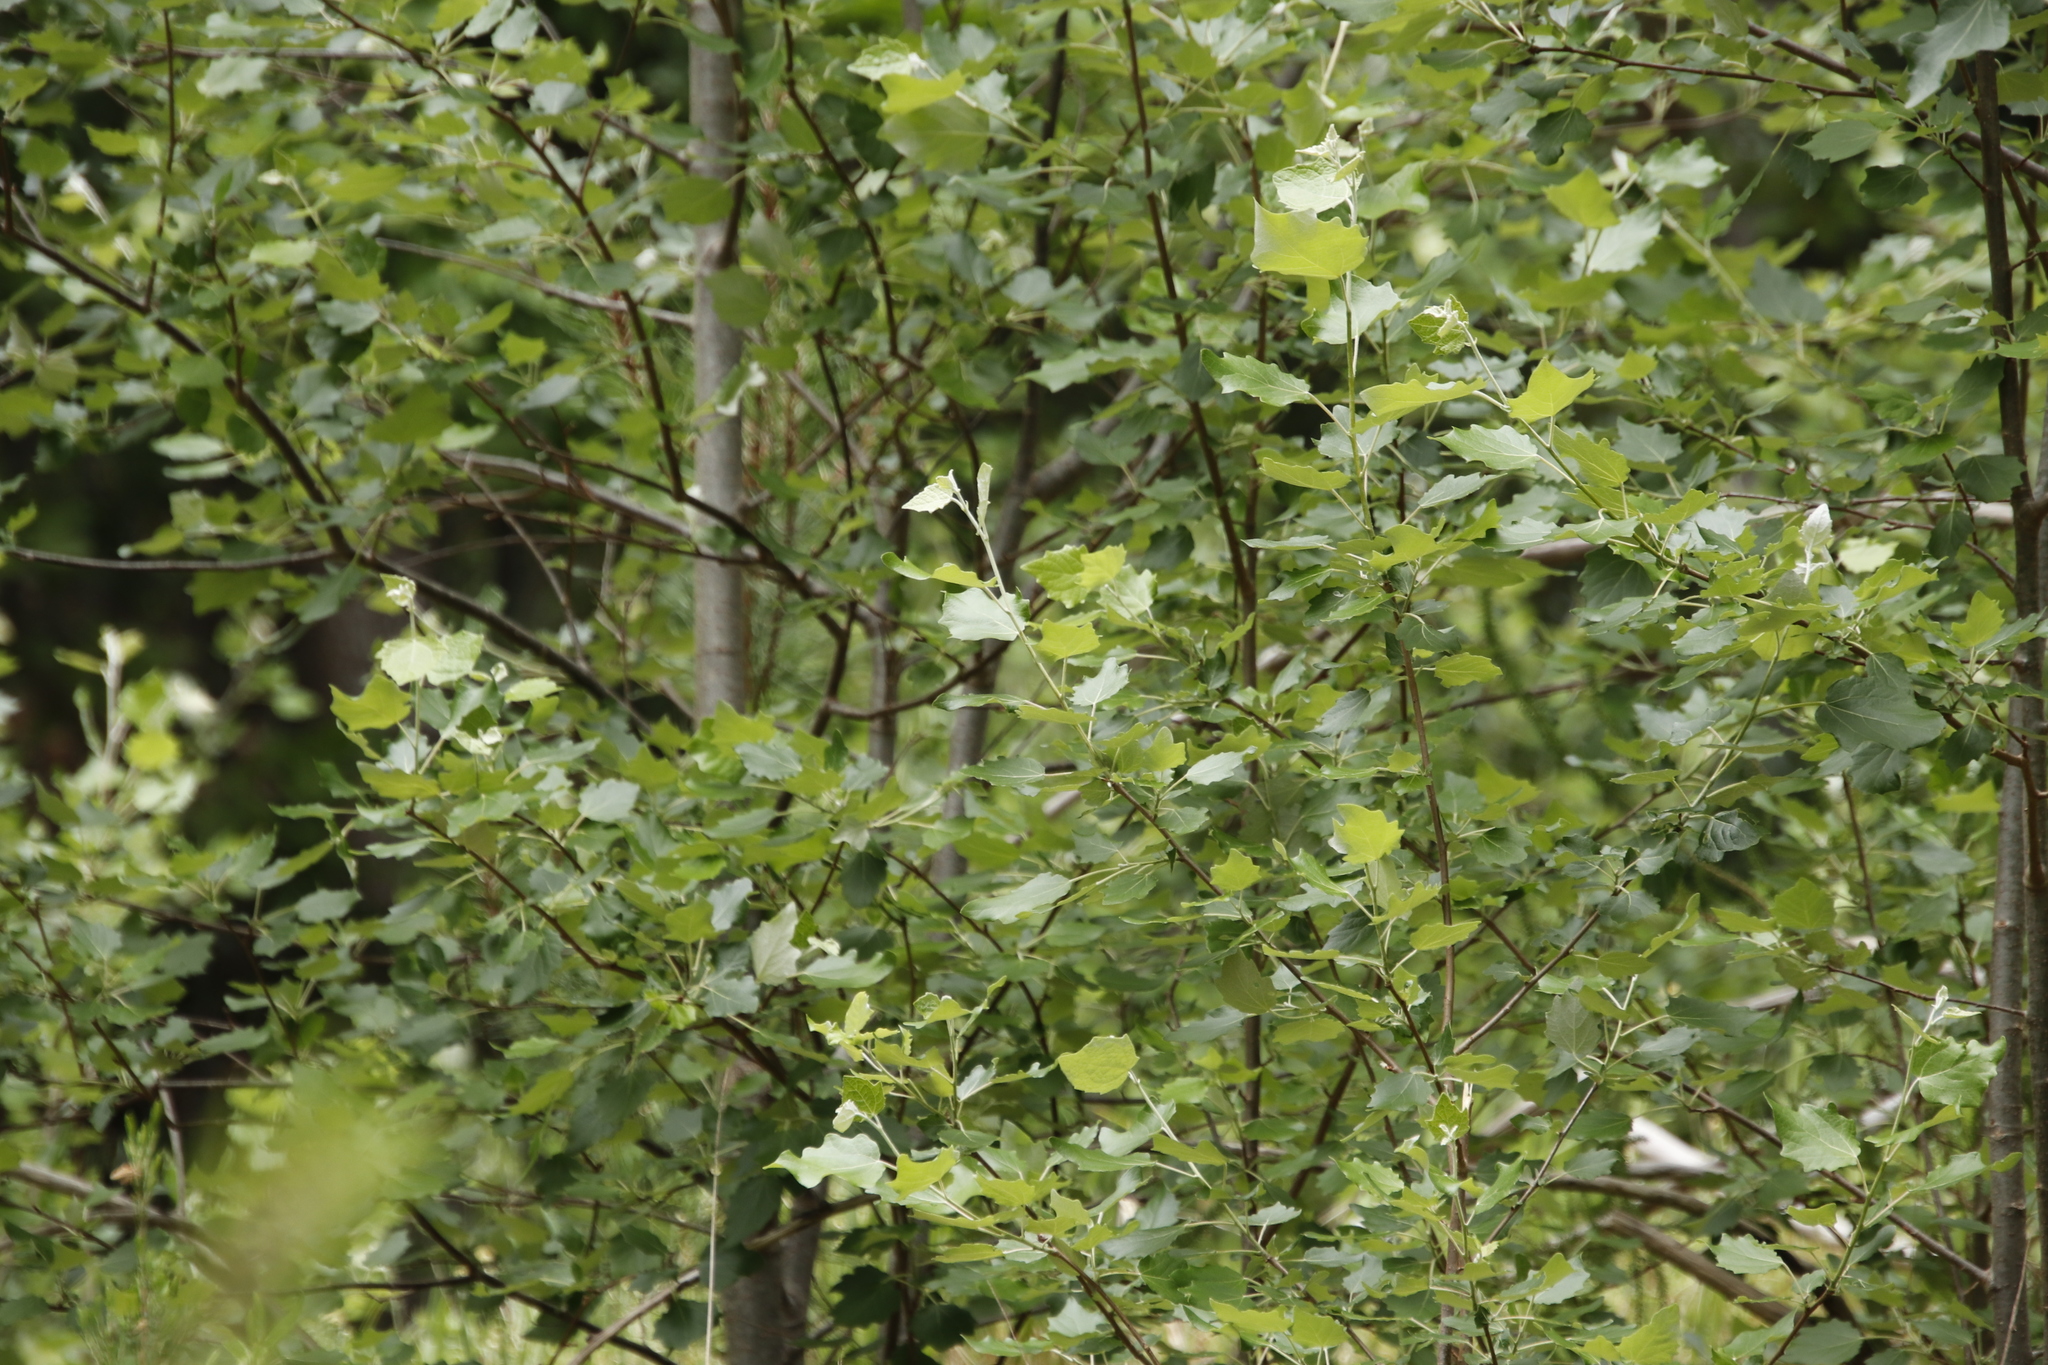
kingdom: Plantae
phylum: Tracheophyta
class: Magnoliopsida
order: Malpighiales
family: Salicaceae
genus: Populus
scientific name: Populus canescens
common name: Gray poplar
